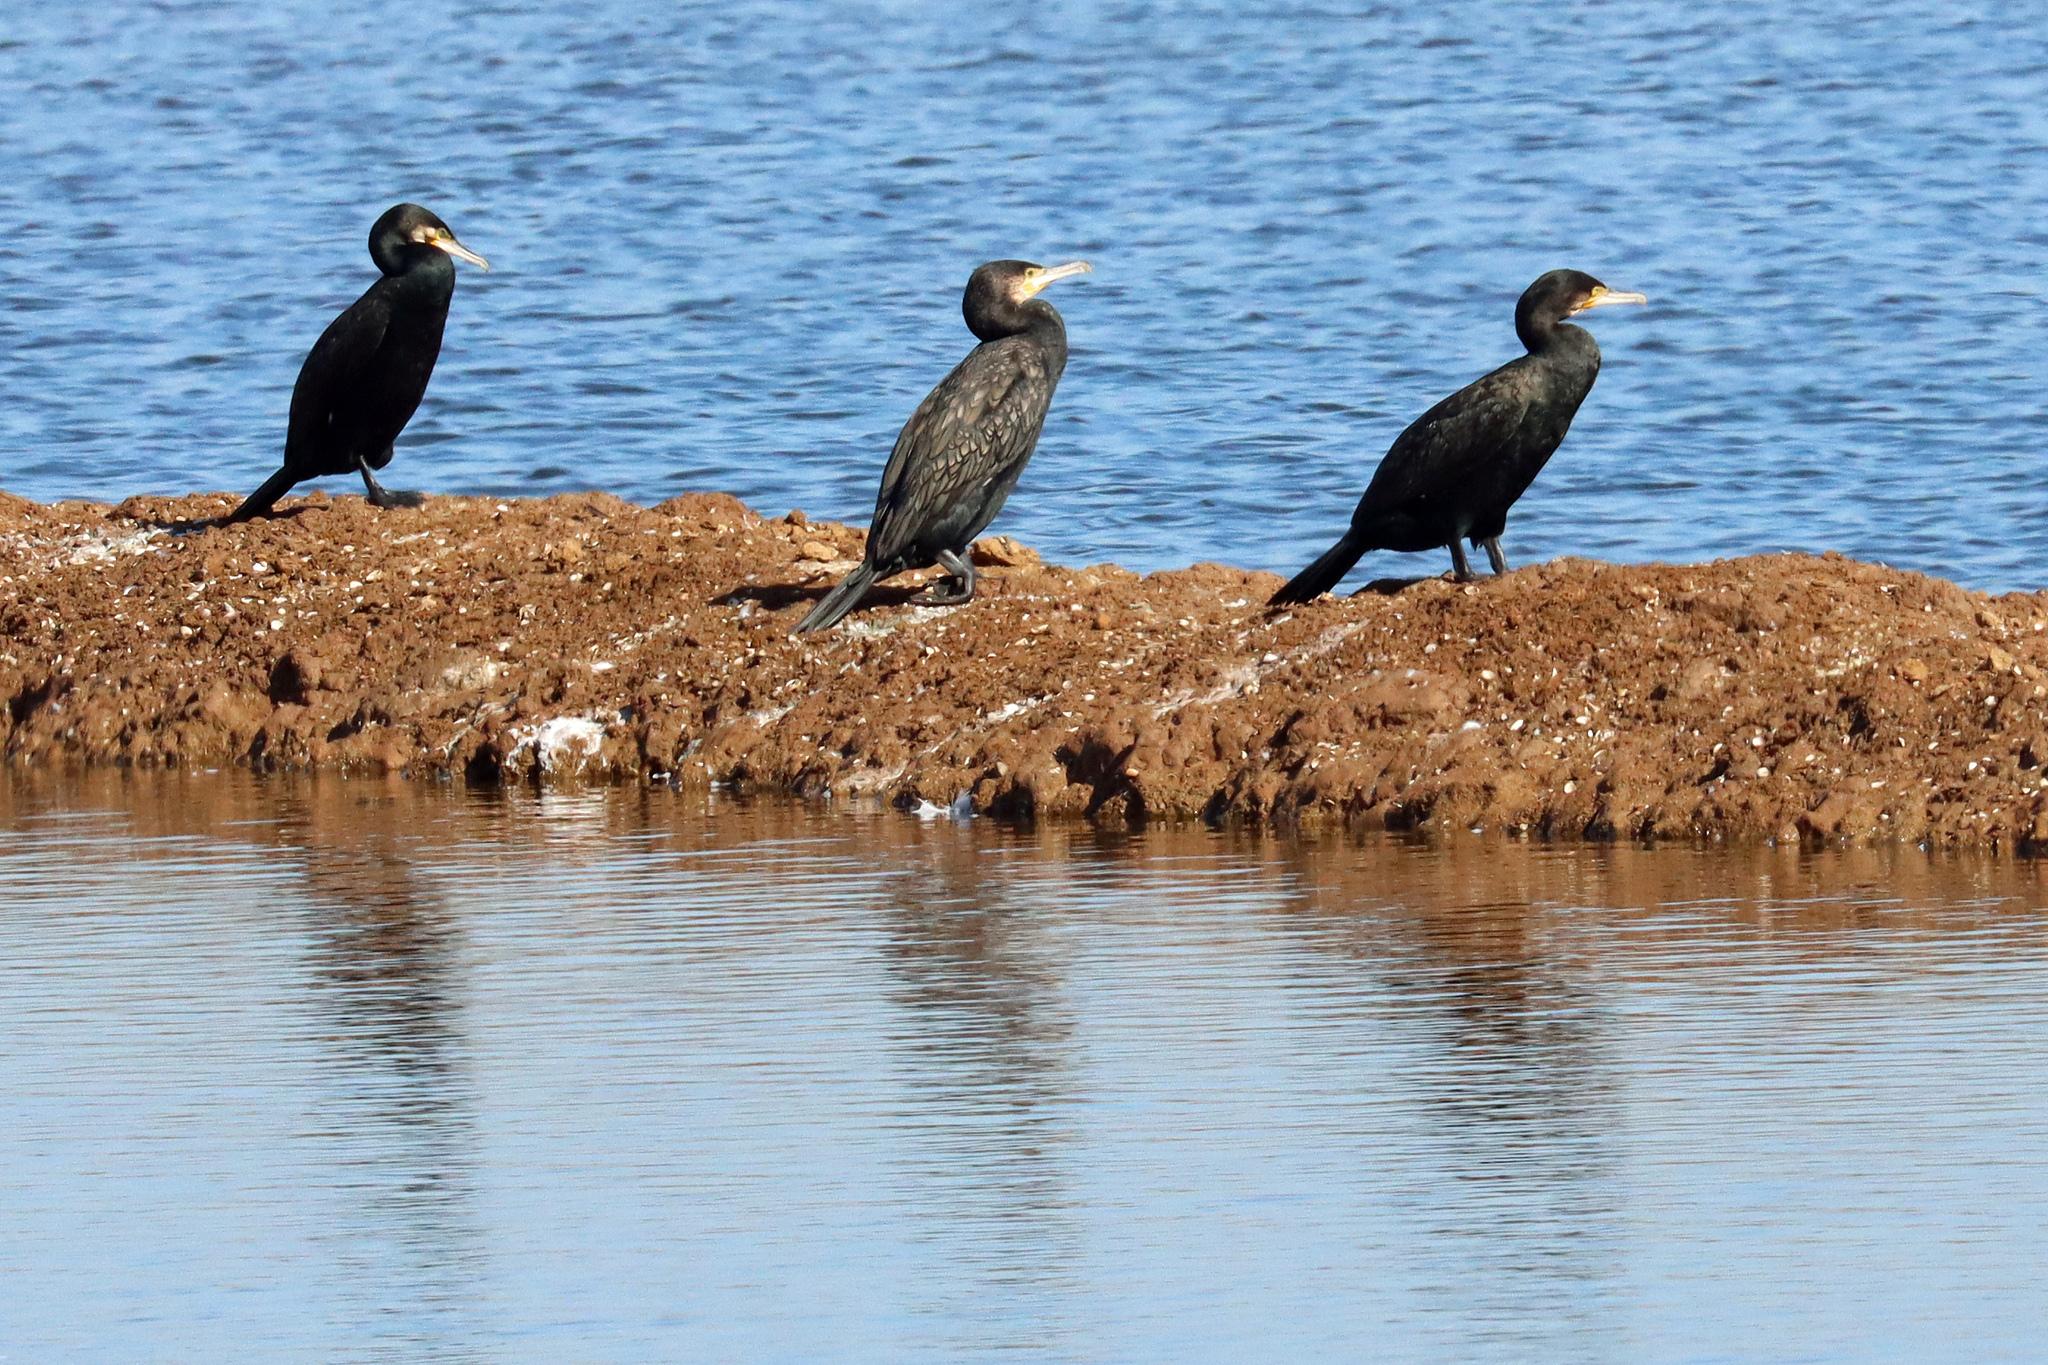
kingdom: Animalia
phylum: Chordata
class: Aves
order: Suliformes
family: Phalacrocoracidae
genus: Phalacrocorax
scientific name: Phalacrocorax carbo
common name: Great cormorant
